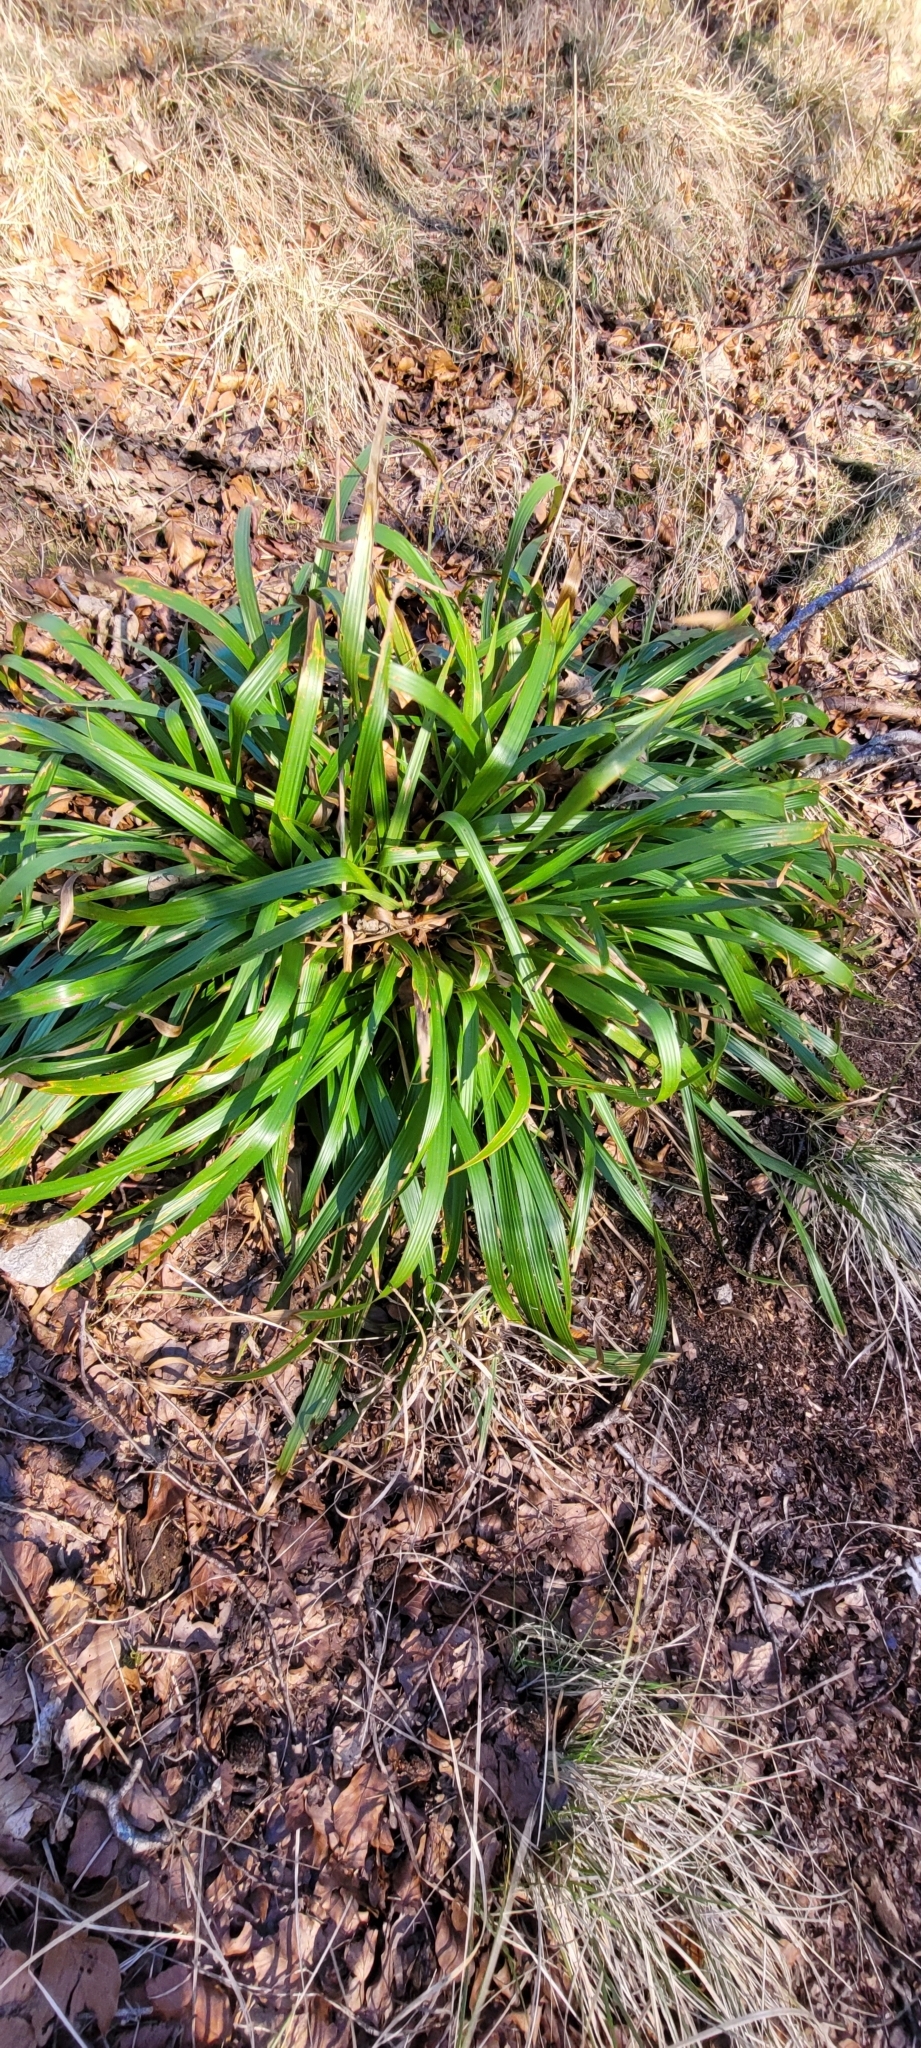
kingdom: Plantae
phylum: Tracheophyta
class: Liliopsida
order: Poales
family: Juncaceae
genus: Luzula
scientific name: Luzula sylvatica
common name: Great wood-rush
